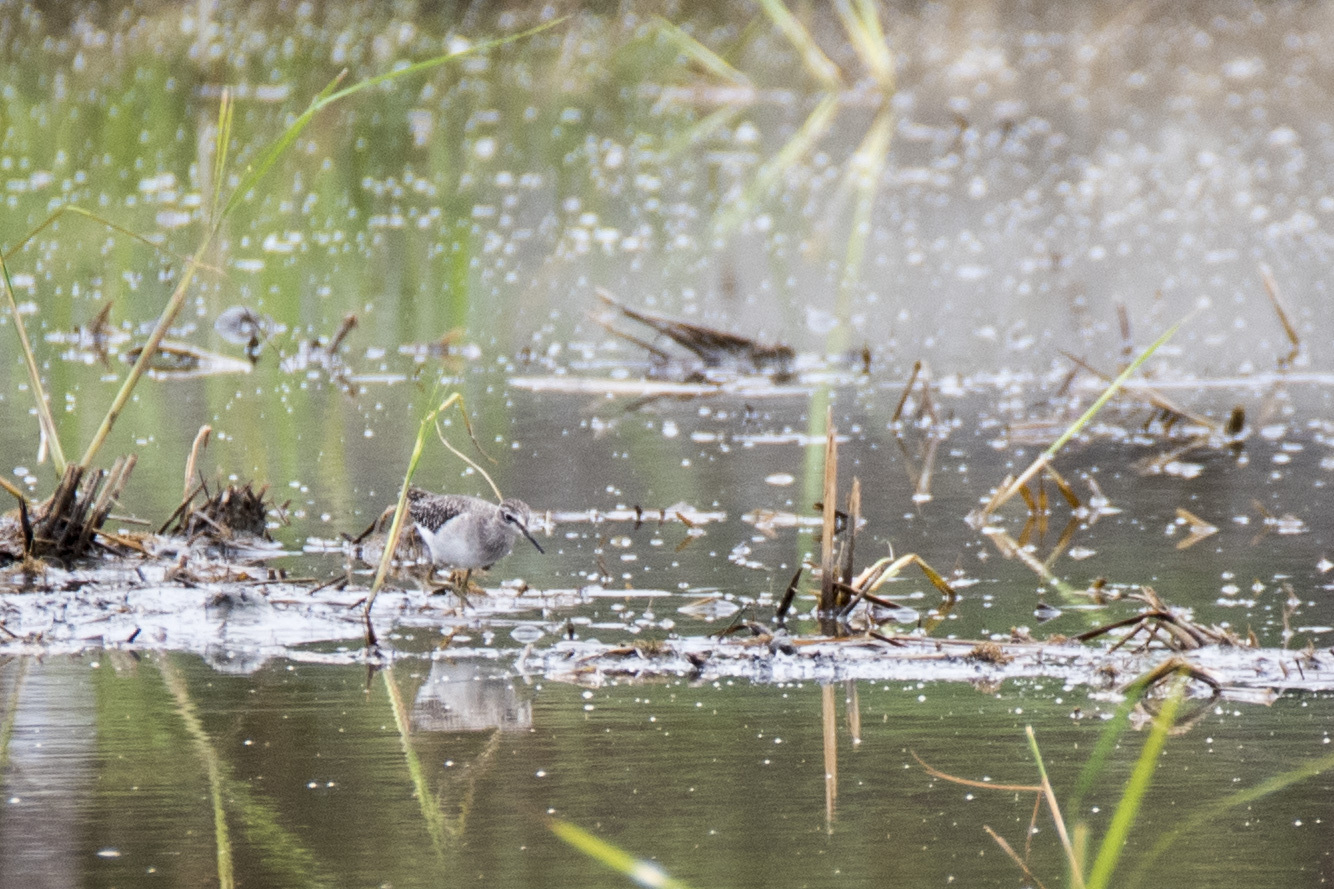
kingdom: Animalia
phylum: Chordata
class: Aves
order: Charadriiformes
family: Scolopacidae
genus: Tringa
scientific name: Tringa glareola
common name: Wood sandpiper
